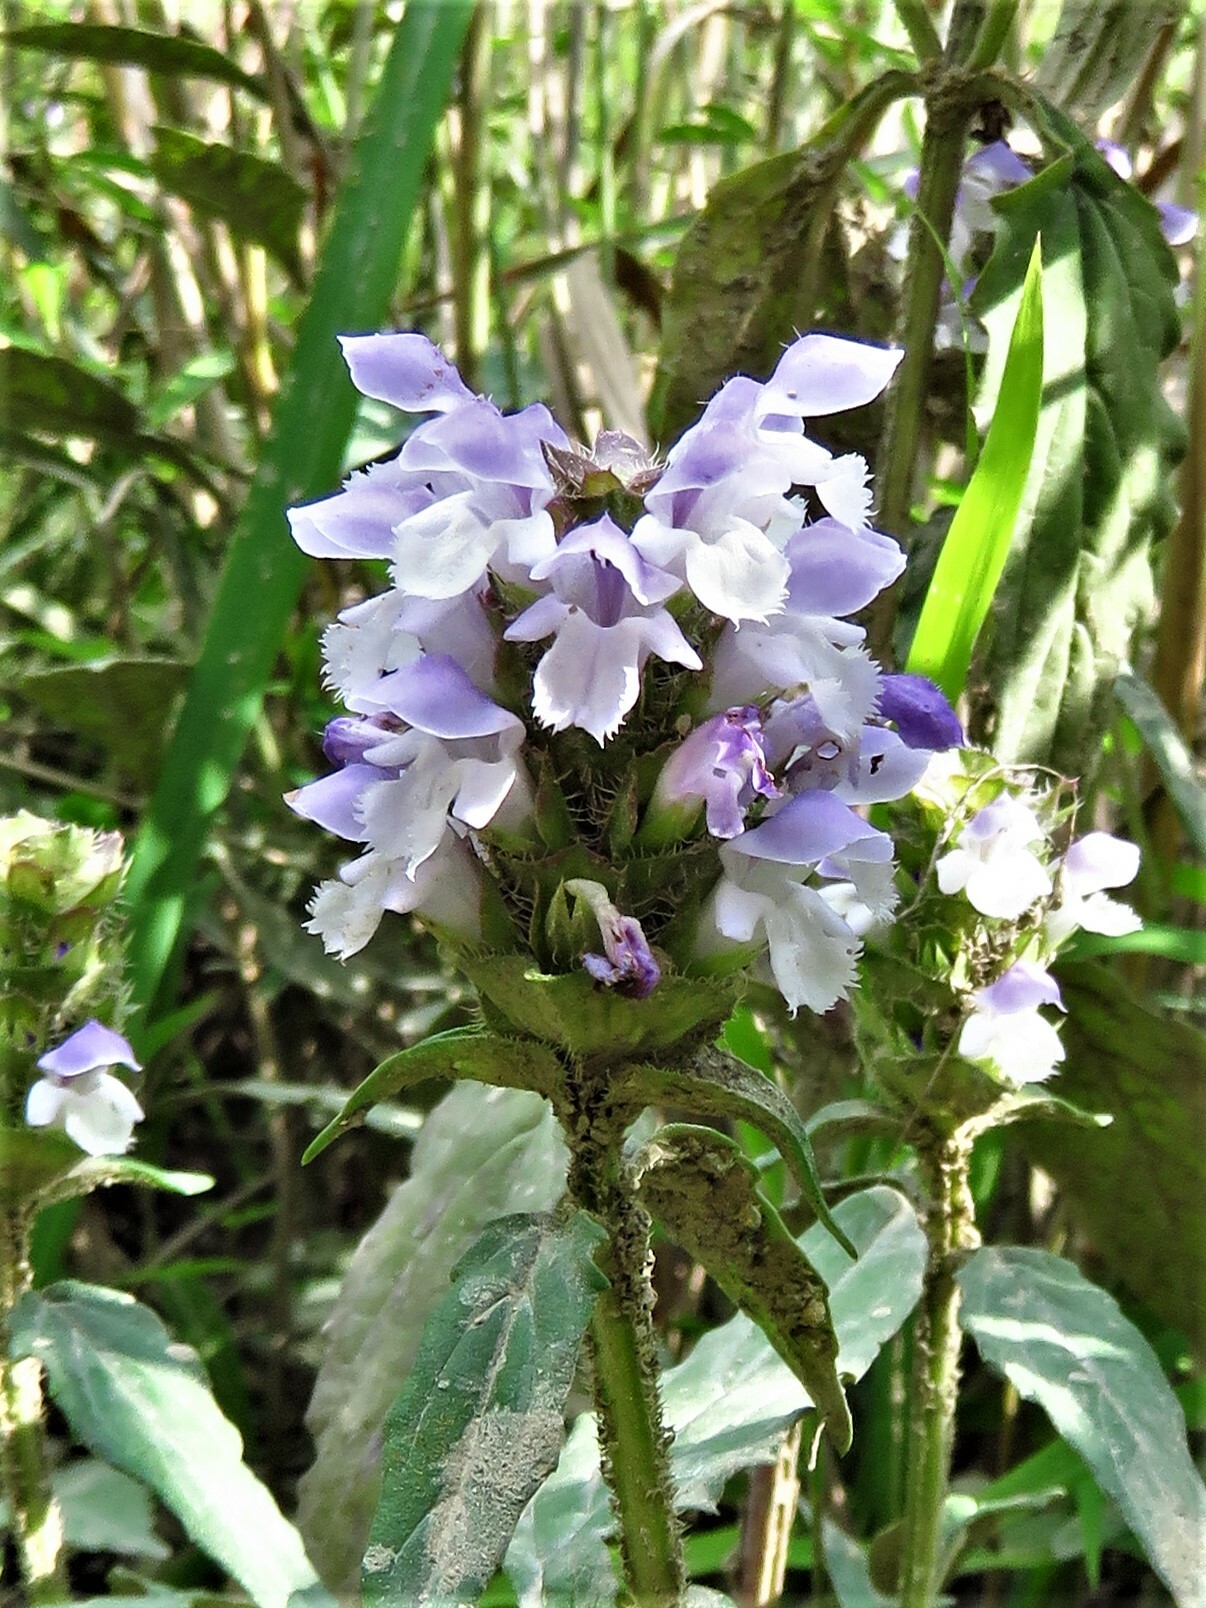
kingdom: Plantae
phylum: Tracheophyta
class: Magnoliopsida
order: Lamiales
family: Lamiaceae
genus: Prunella
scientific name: Prunella vulgaris
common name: Heal-all
